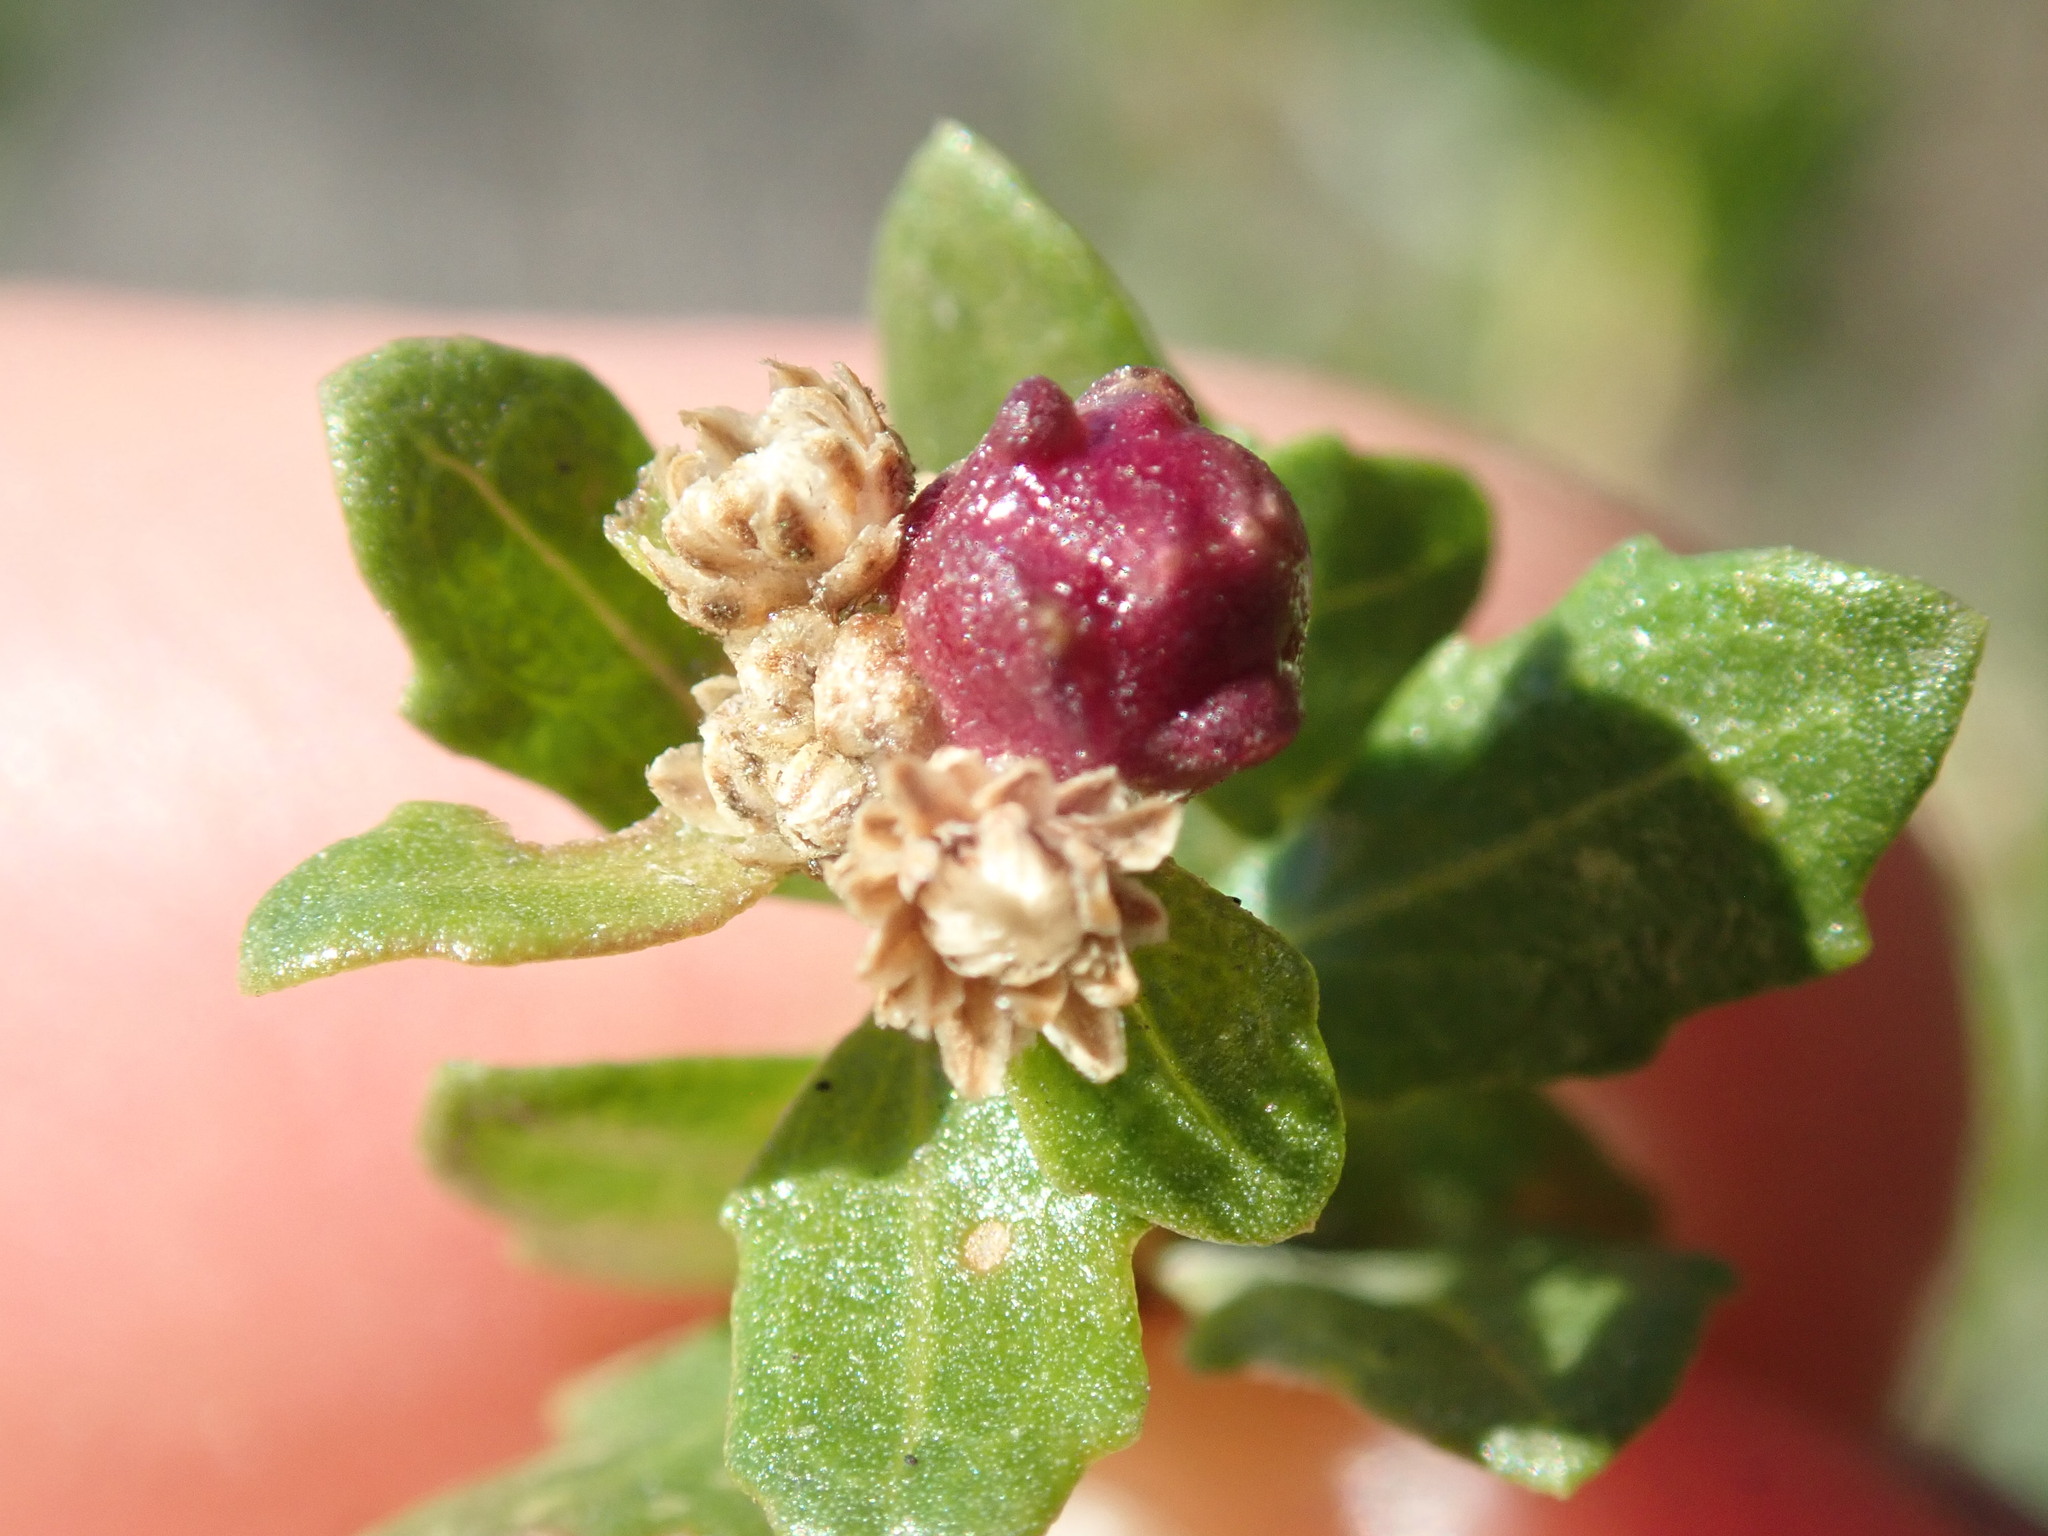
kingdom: Animalia
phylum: Arthropoda
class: Insecta
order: Diptera
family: Cecidomyiidae
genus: Rhopalomyia
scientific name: Rhopalomyia californica
